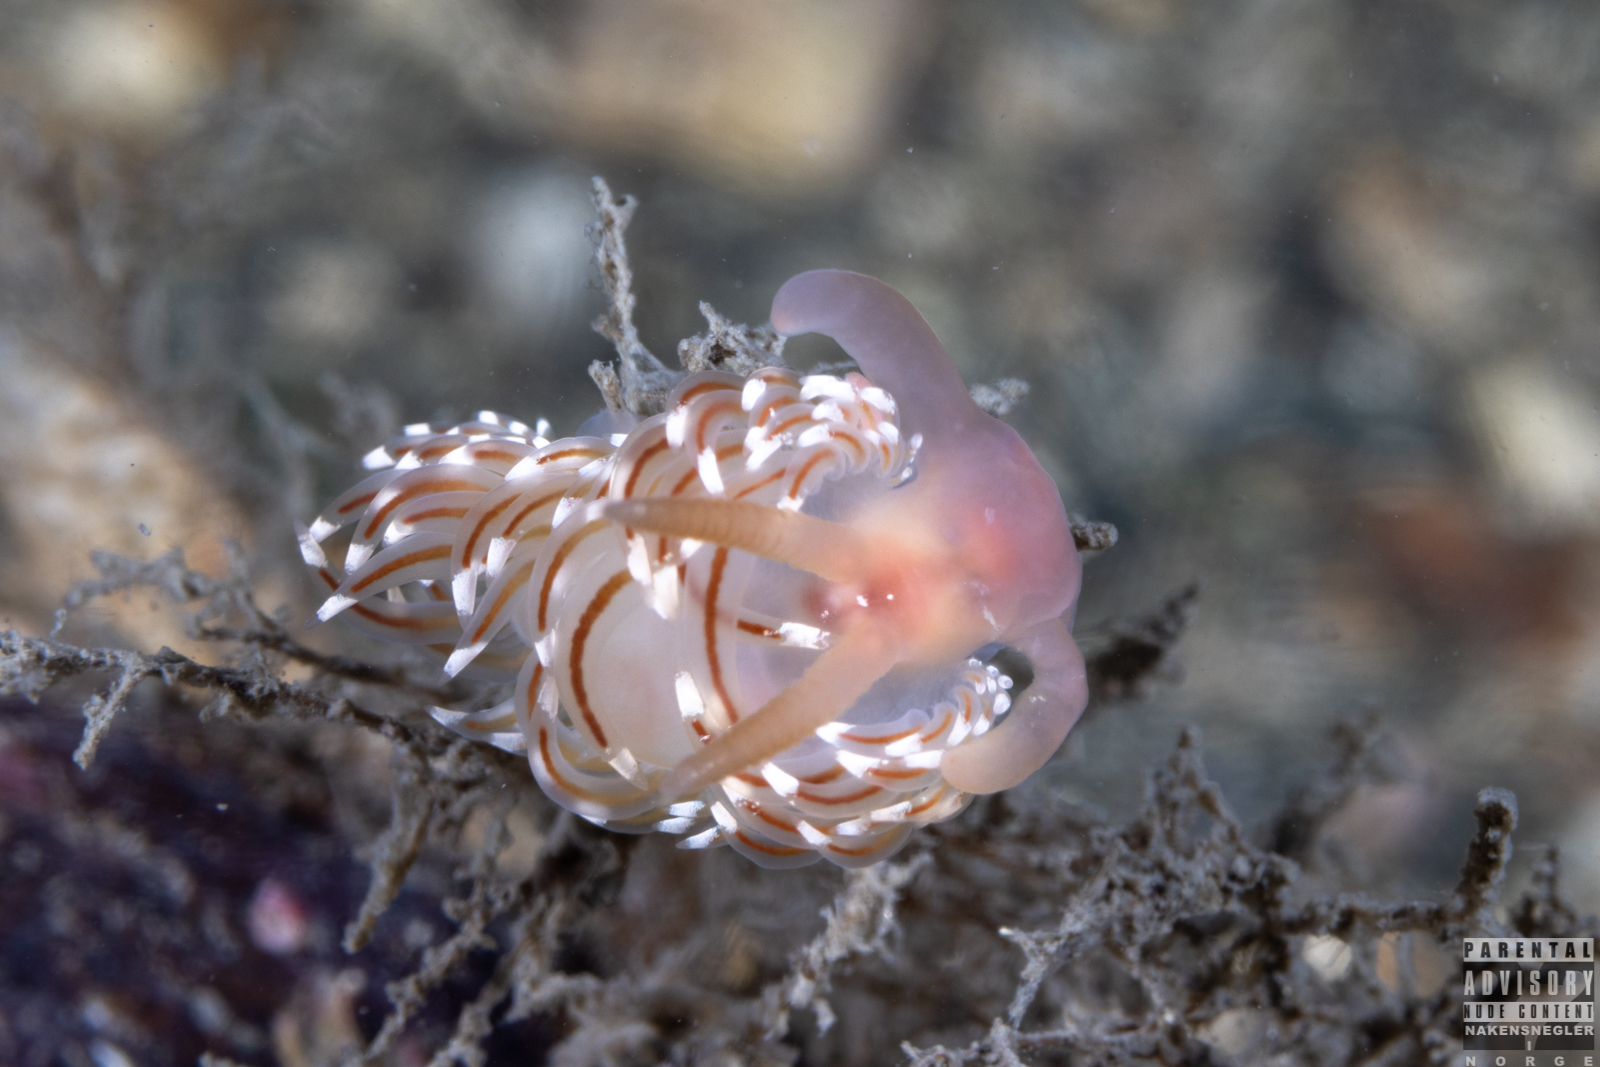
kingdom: Animalia
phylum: Mollusca
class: Gastropoda
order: Nudibranchia
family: Facelinidae
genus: Facelina
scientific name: Facelina bostoniensis
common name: Boston facelina
